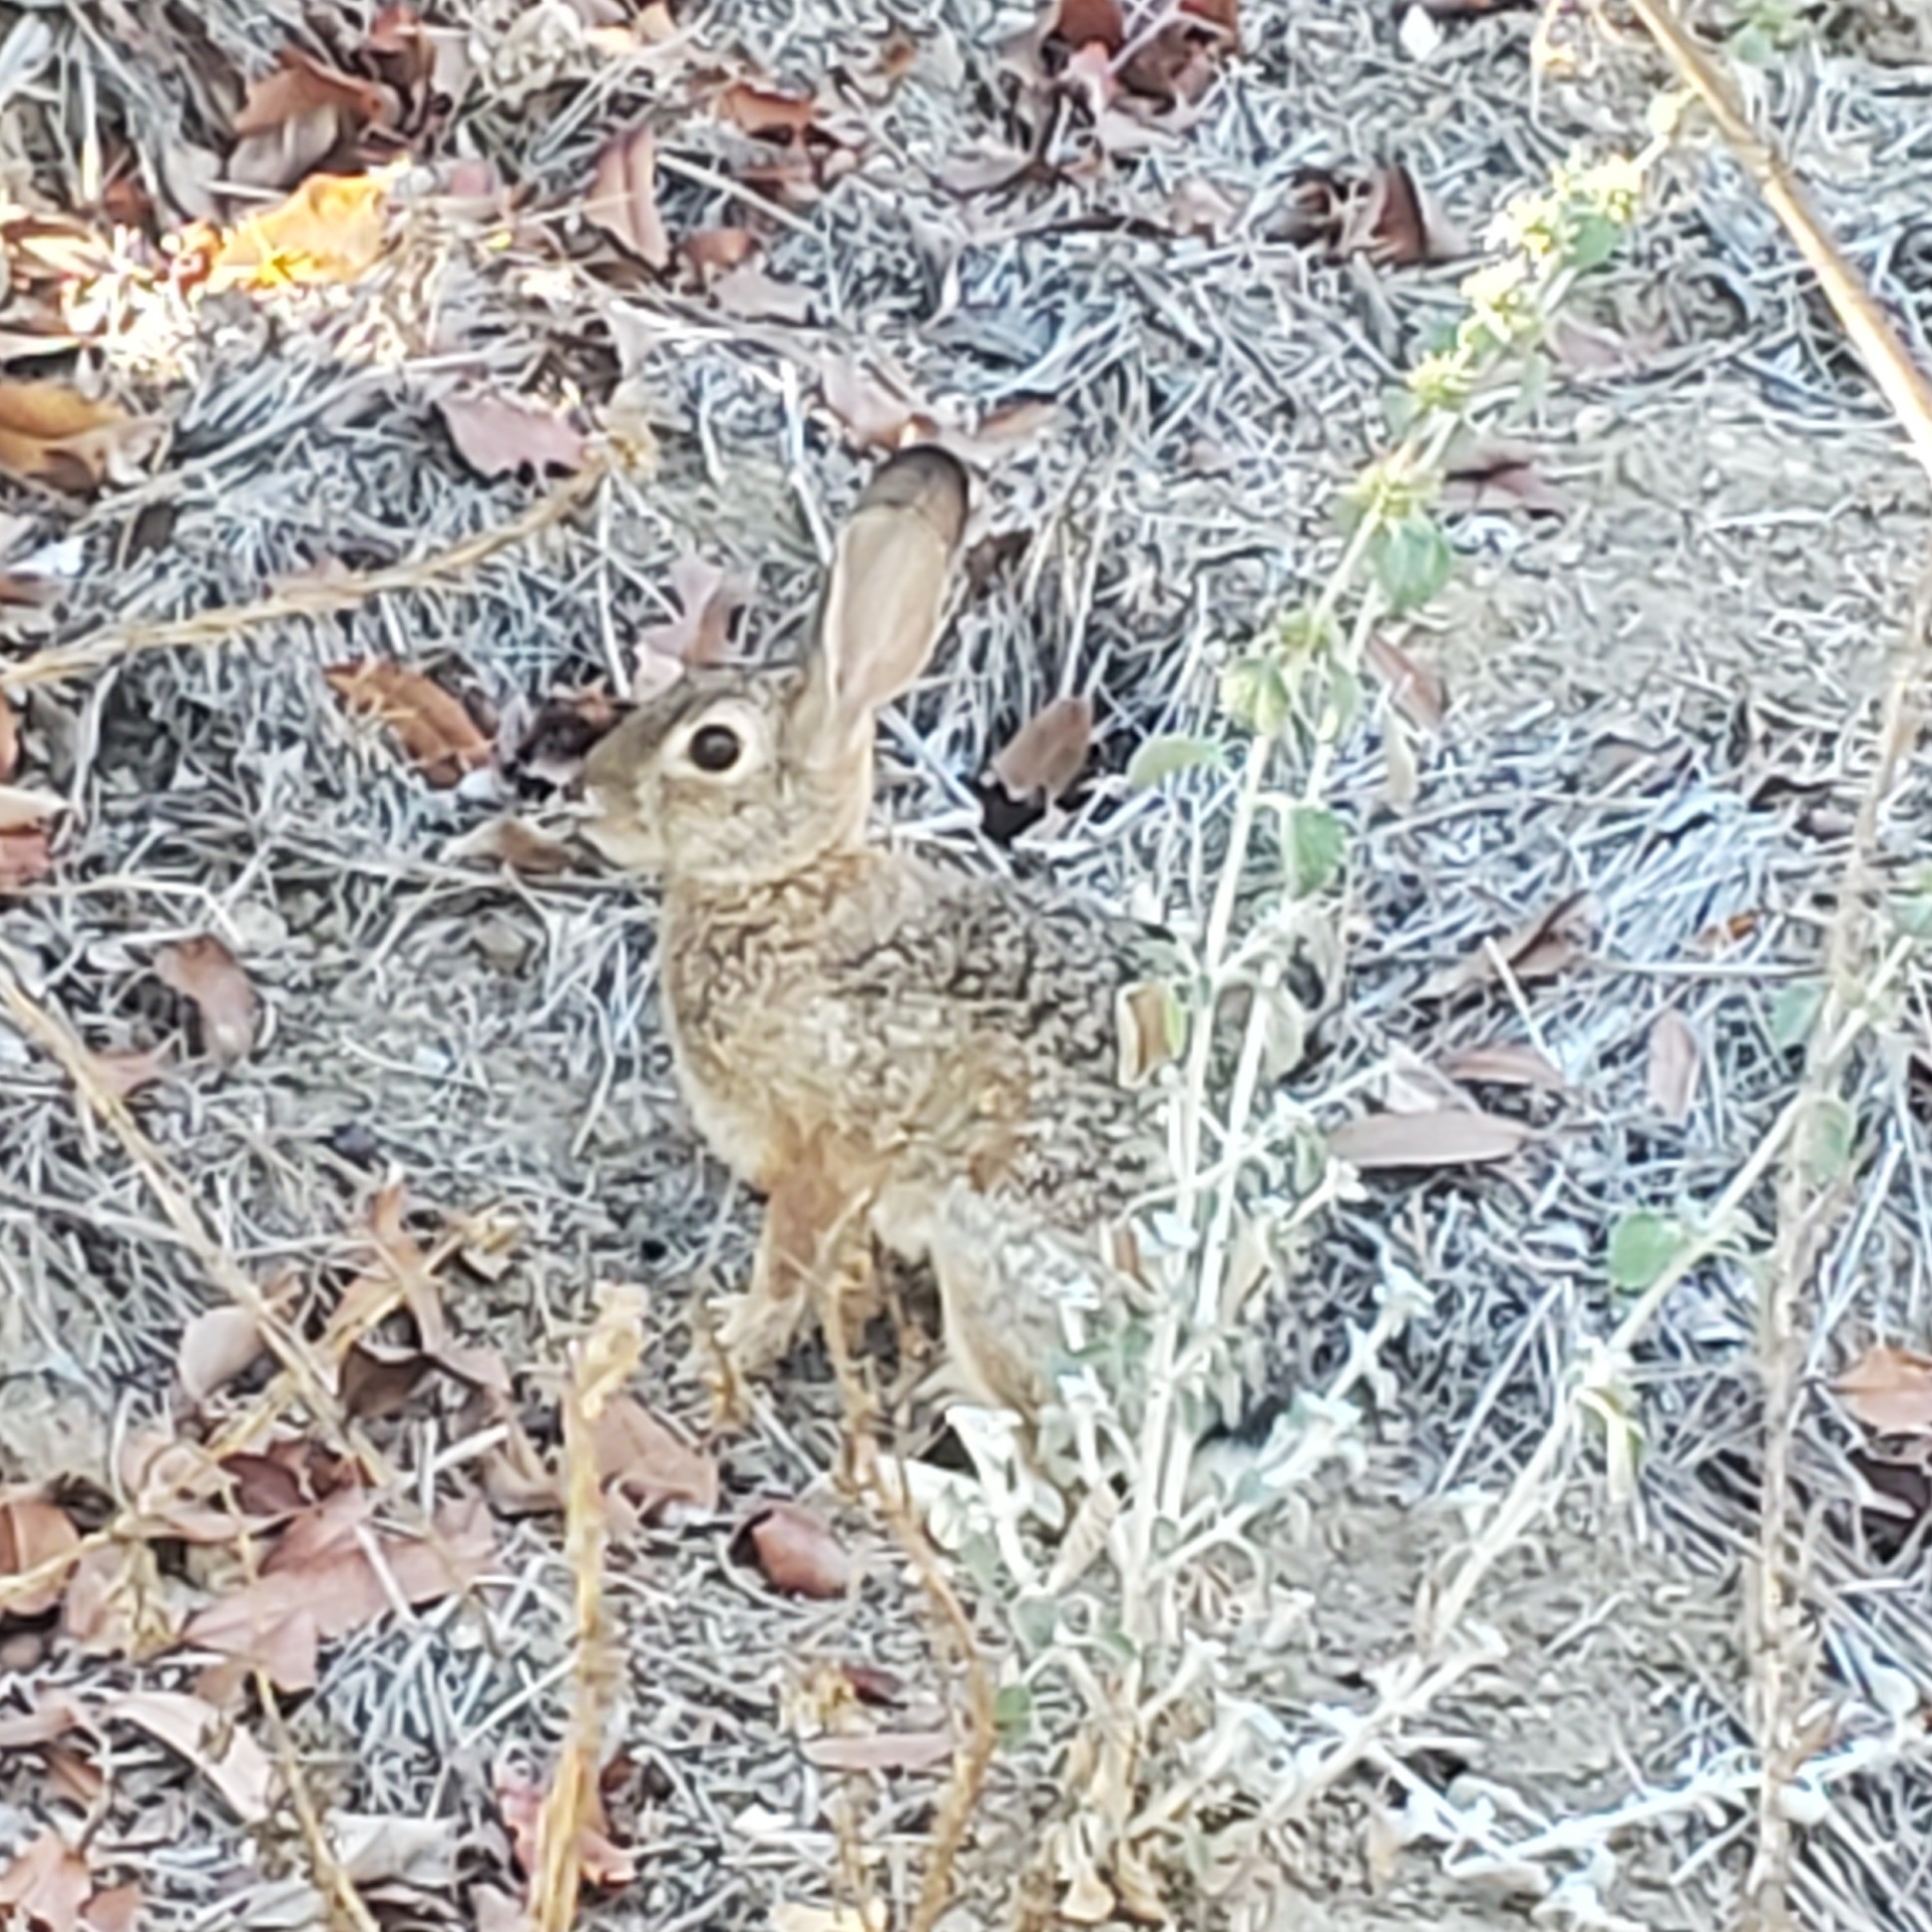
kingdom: Animalia
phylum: Chordata
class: Mammalia
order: Lagomorpha
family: Leporidae
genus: Sylvilagus
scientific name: Sylvilagus audubonii
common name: Desert cottontail
